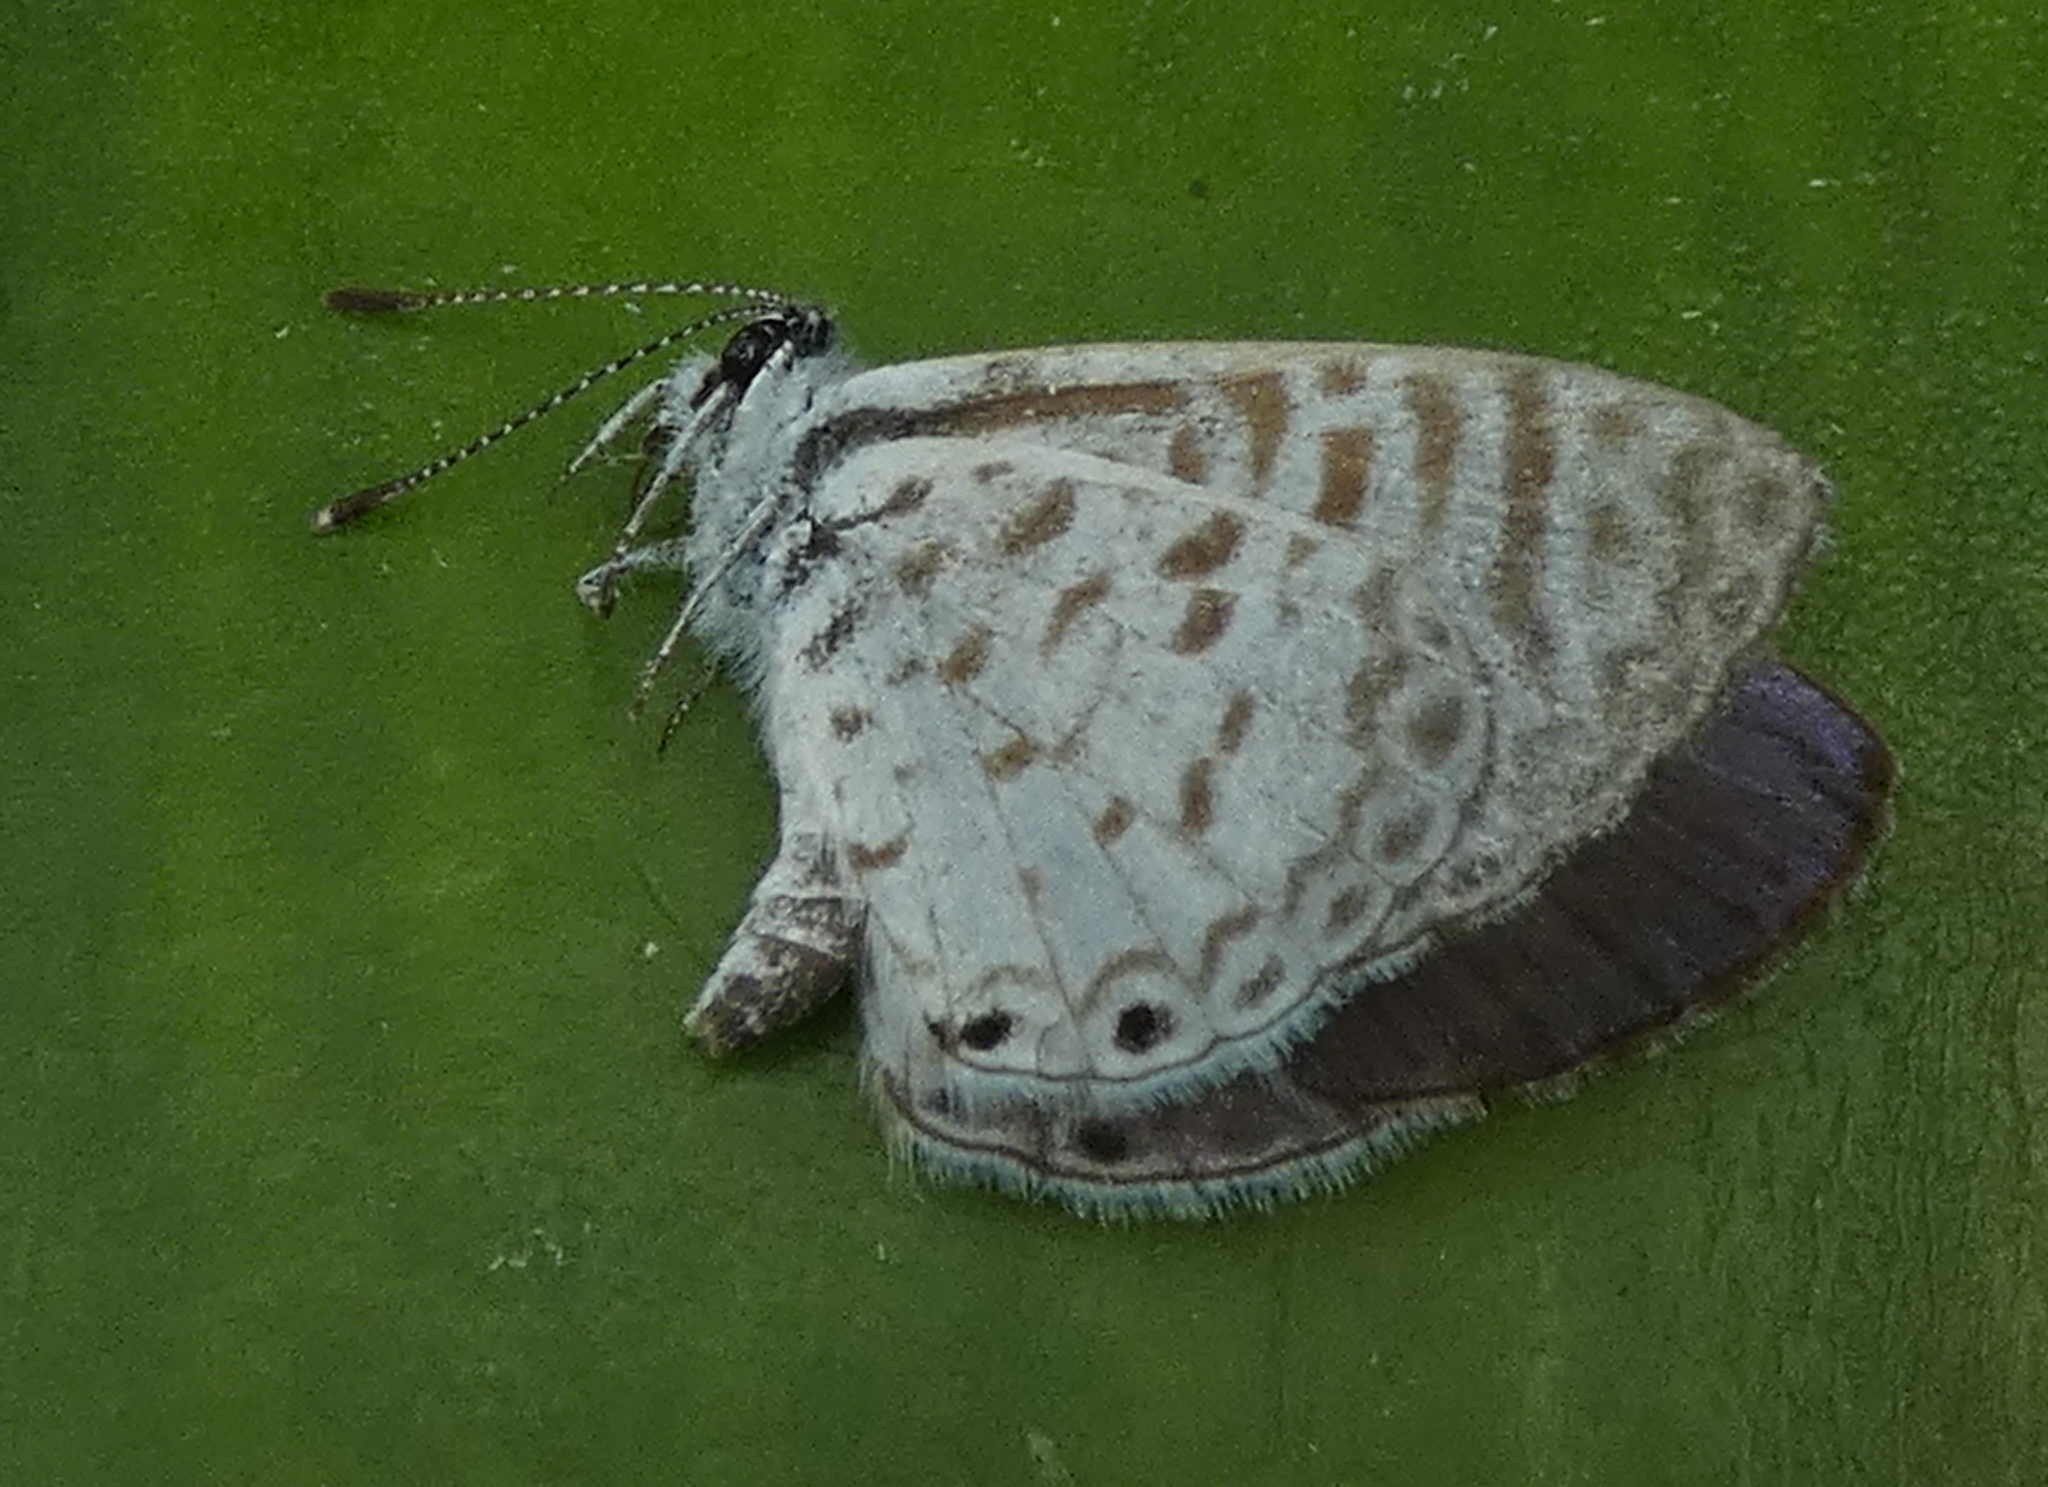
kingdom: Animalia
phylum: Arthropoda
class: Insecta
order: Lepidoptera
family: Lycaenidae
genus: Leptotes
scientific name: Leptotes cassius
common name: Cassius blue
